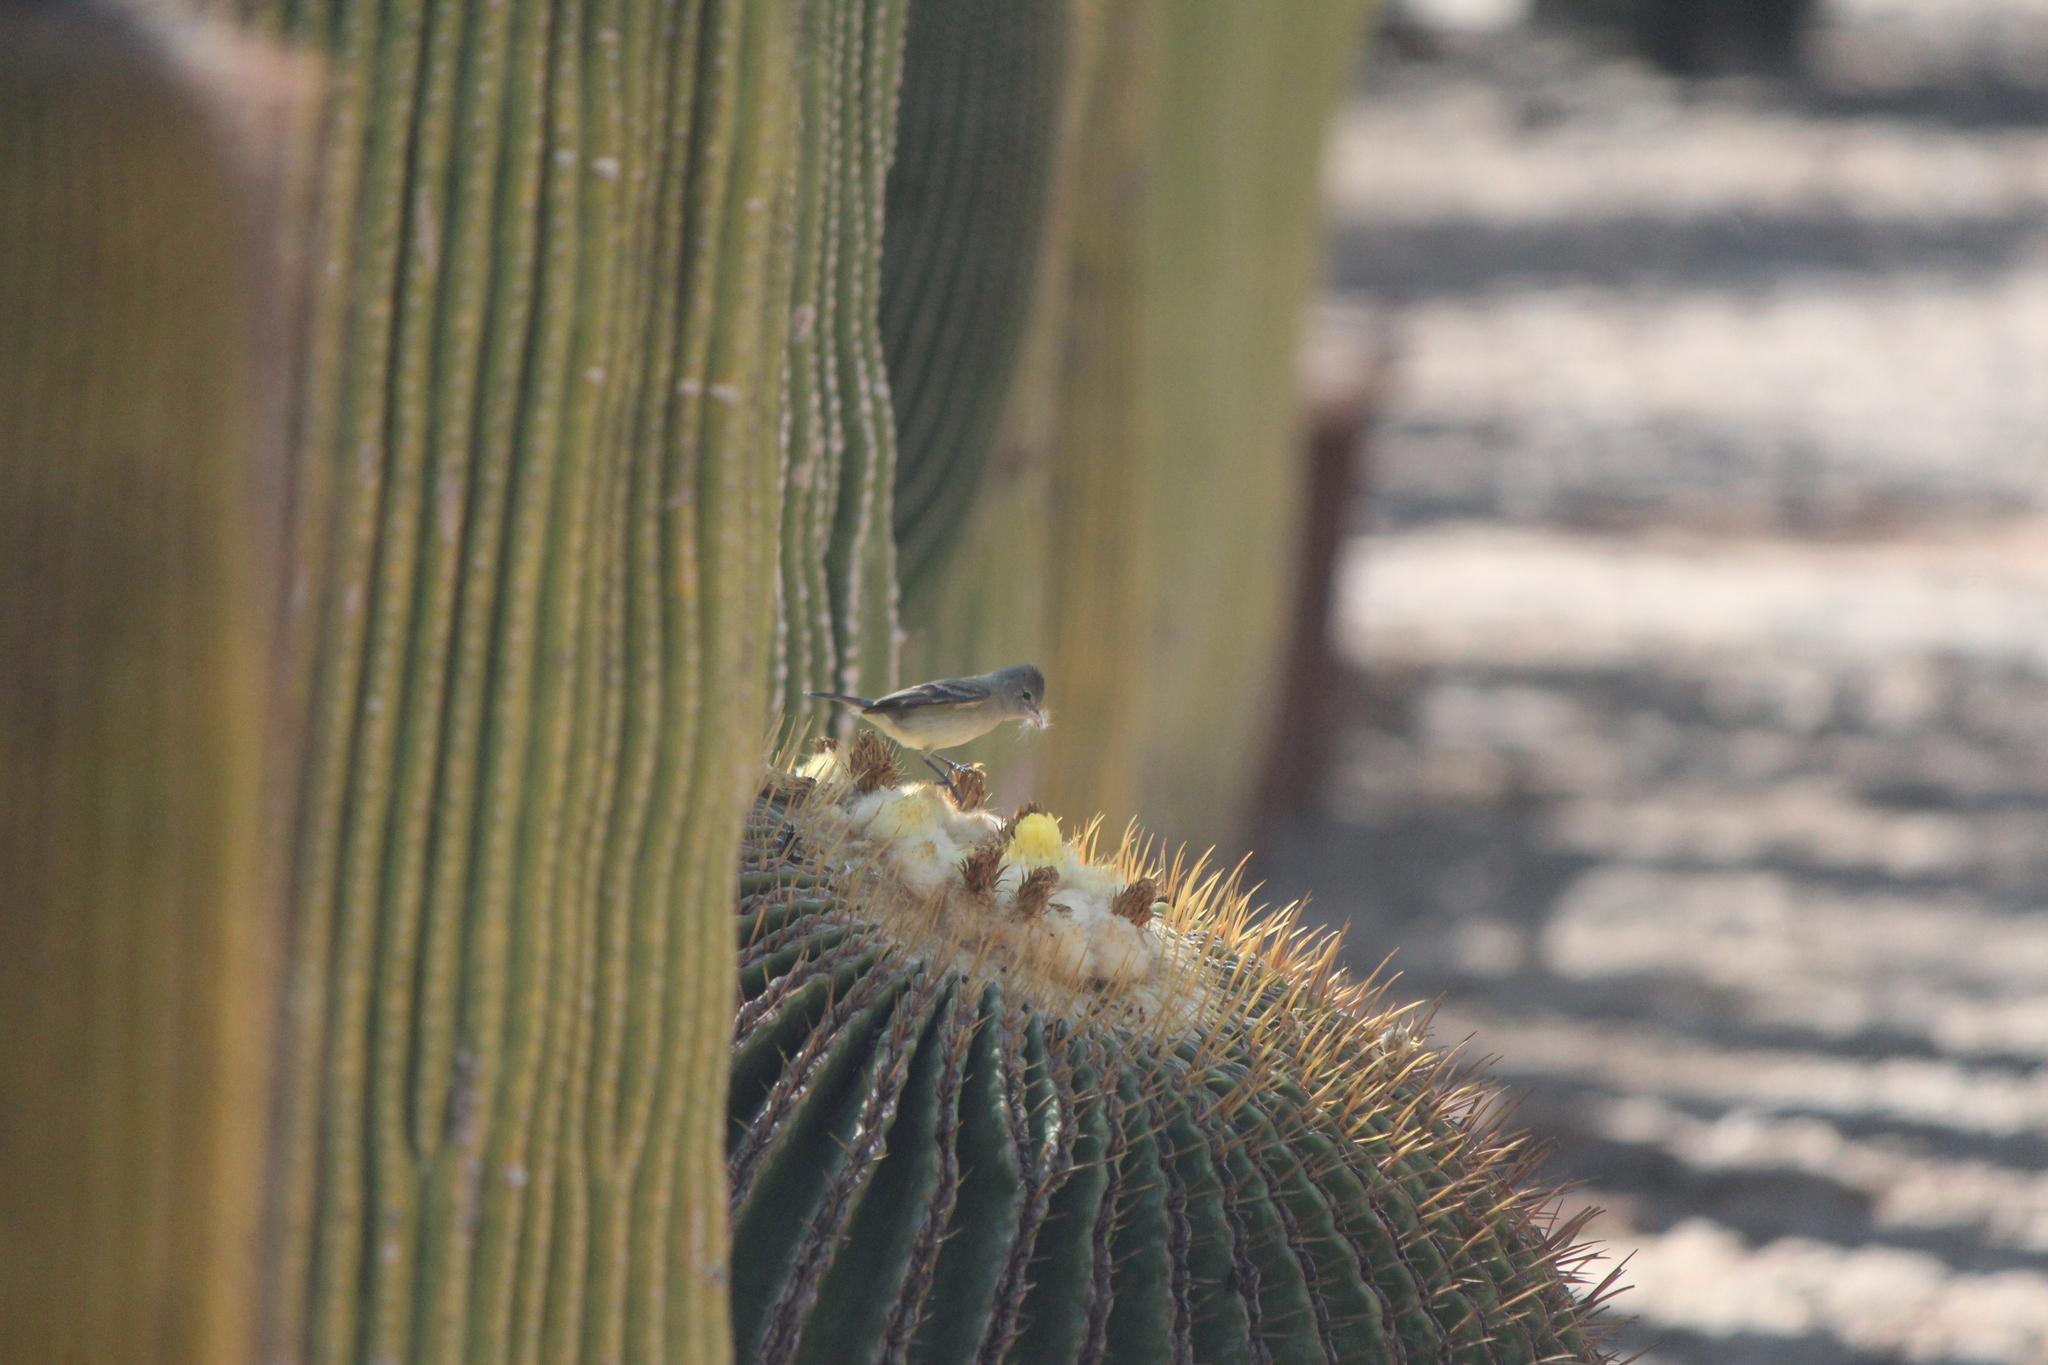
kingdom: Animalia
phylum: Chordata
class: Aves
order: Passeriformes
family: Tyrannidae
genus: Camptostoma
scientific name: Camptostoma imberbe
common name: Northern beardless-tyrannulet
